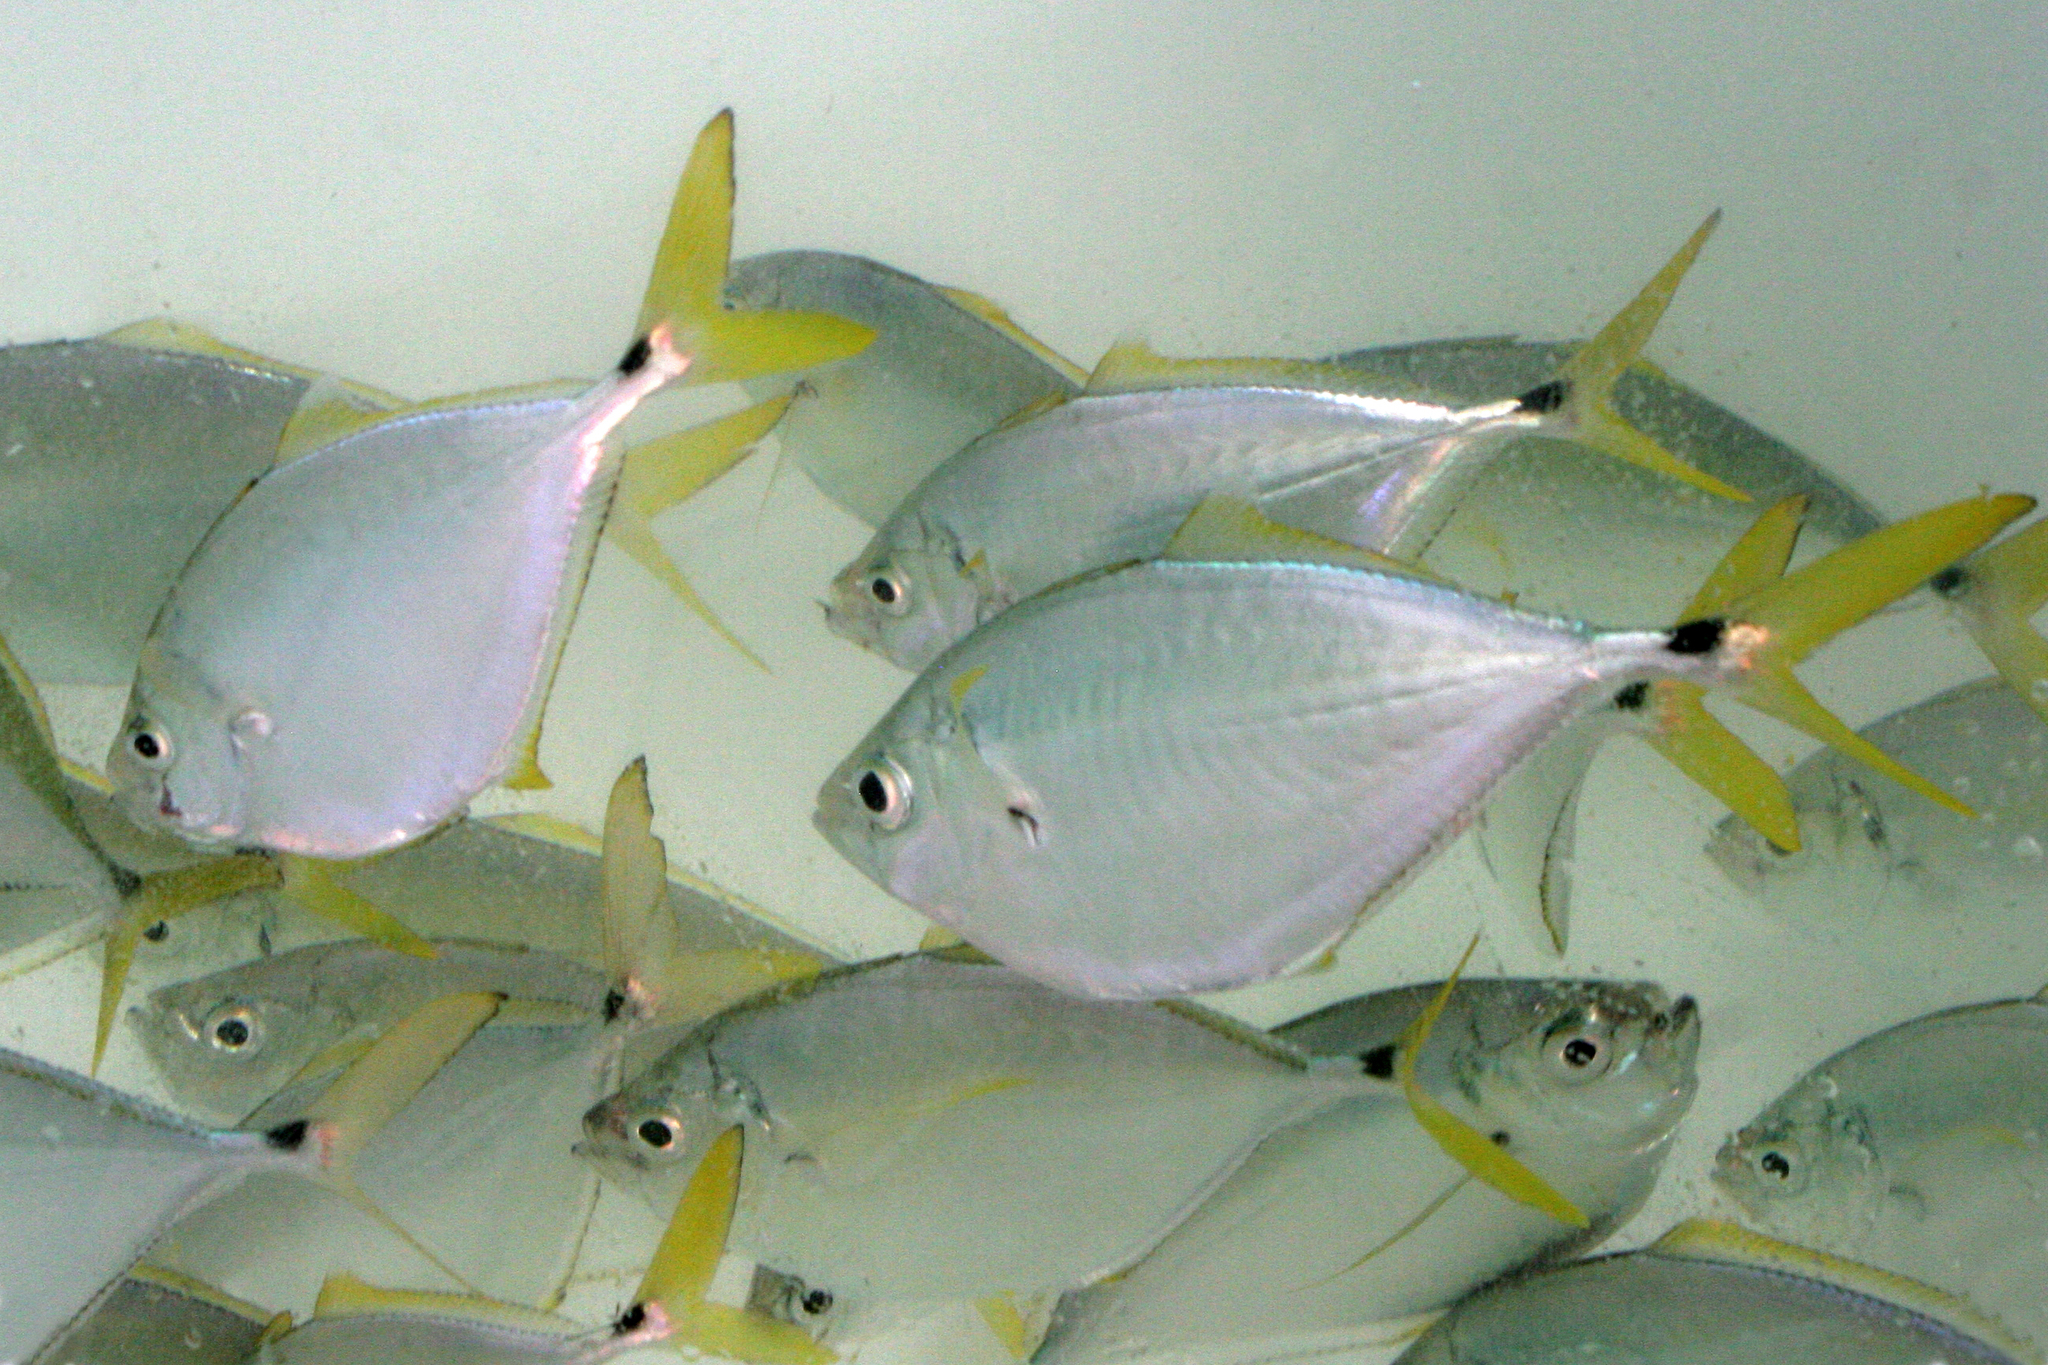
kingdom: Animalia
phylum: Chordata
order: Perciformes
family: Carangidae
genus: Chloroscombrus
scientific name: Chloroscombrus chrysurus
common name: Bumper
